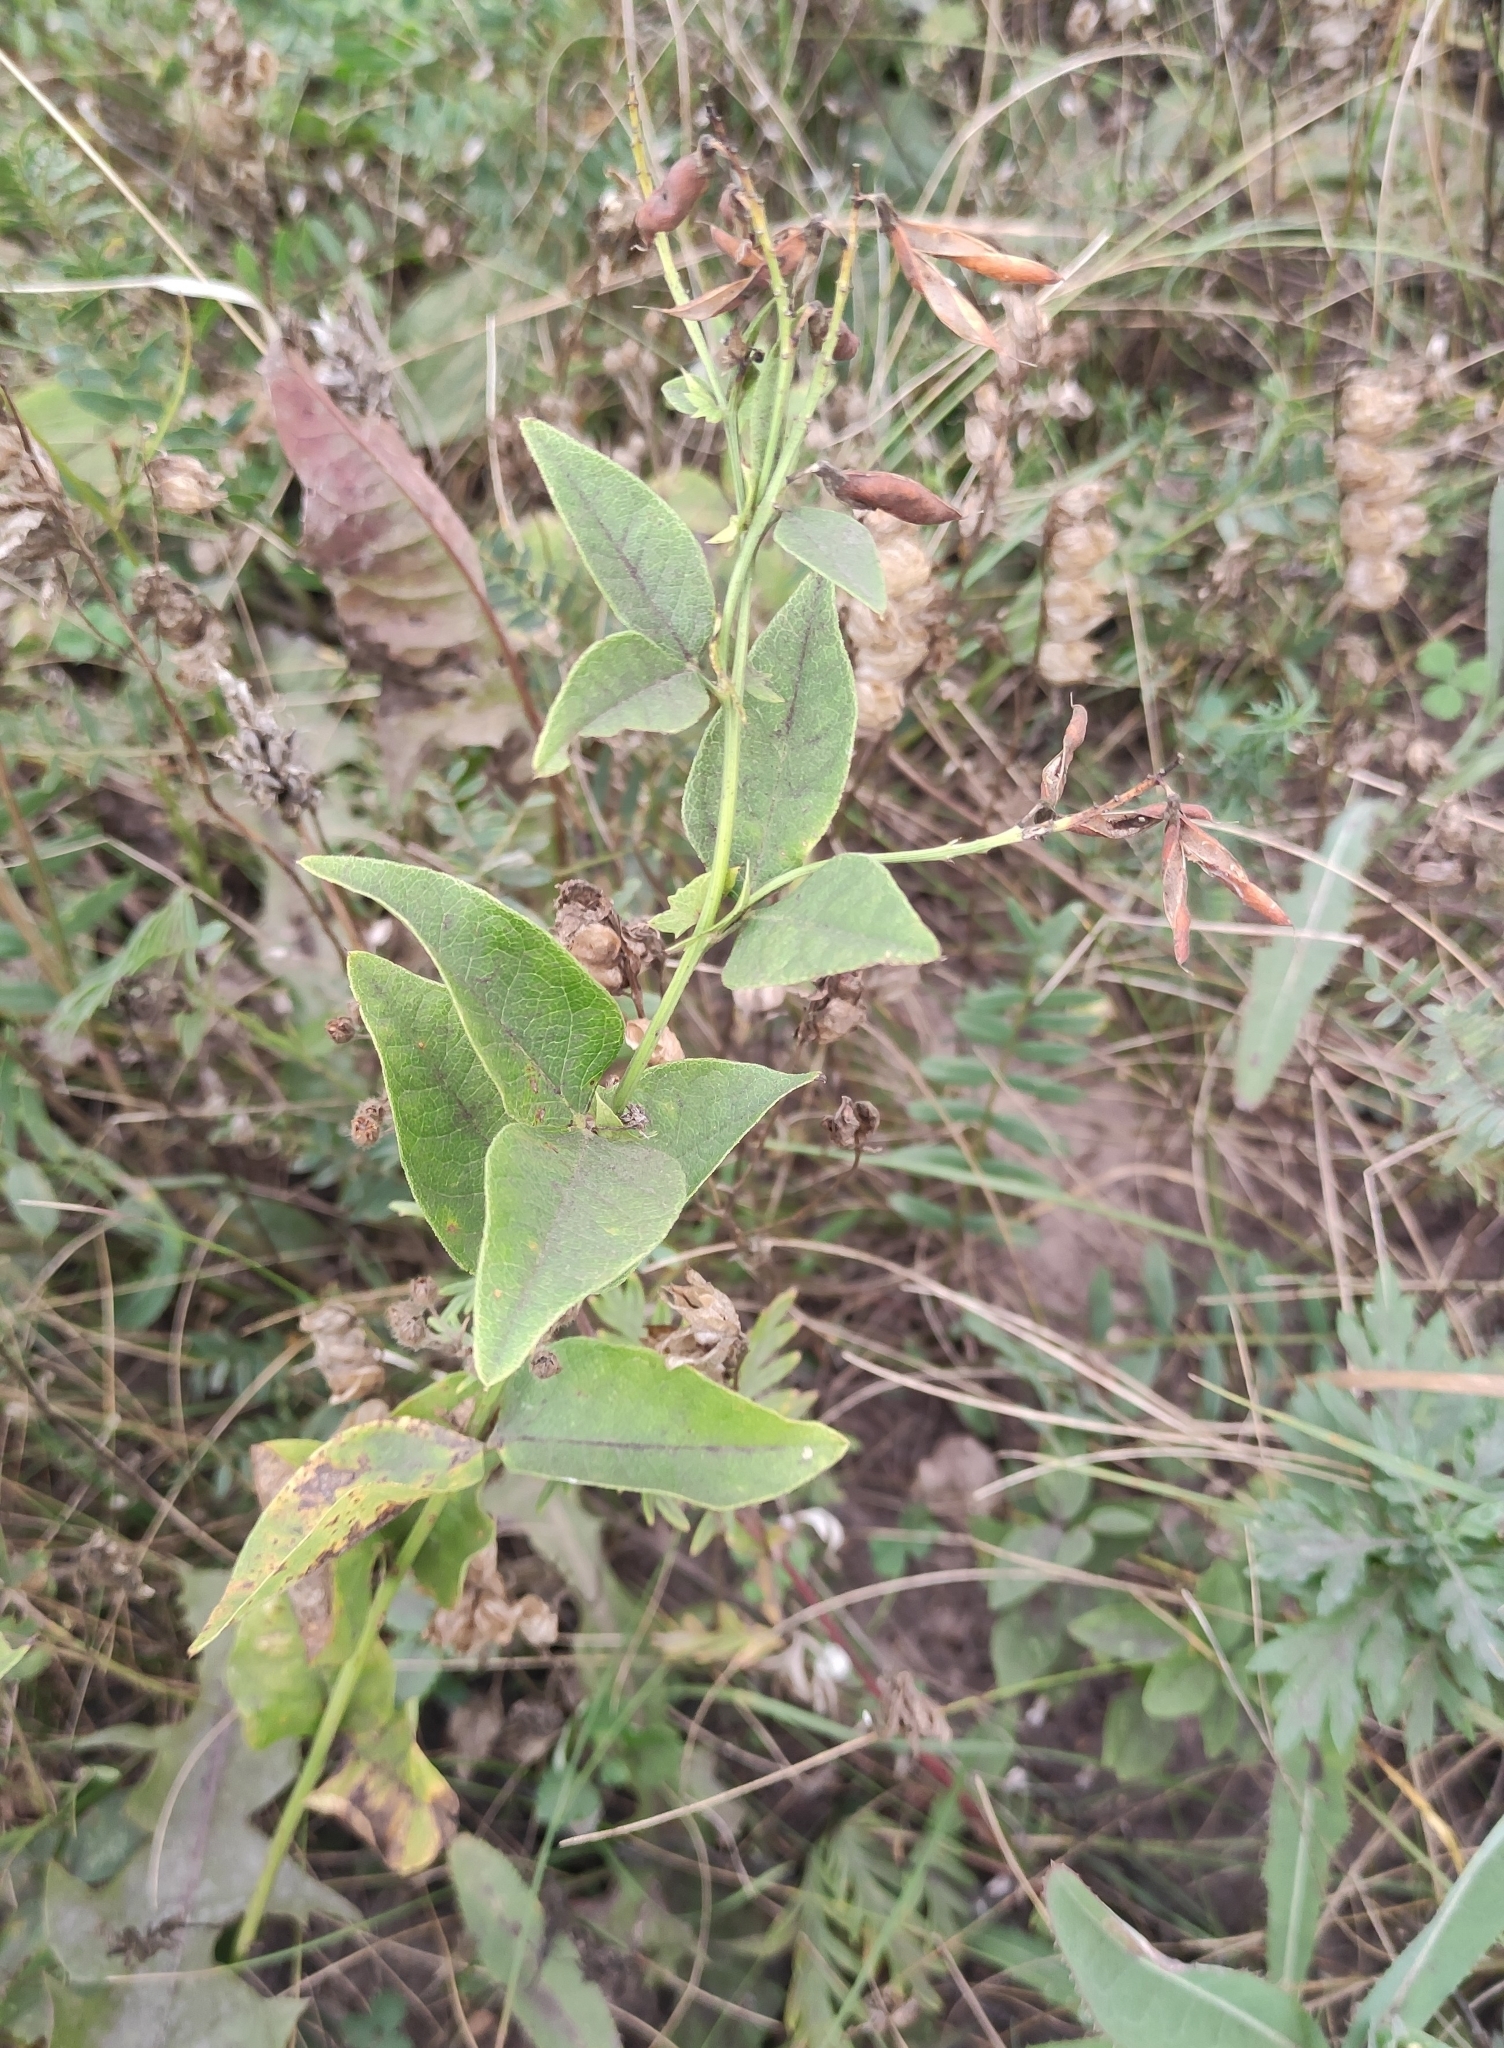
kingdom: Plantae
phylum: Tracheophyta
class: Magnoliopsida
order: Fabales
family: Fabaceae
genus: Vicia
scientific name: Vicia unijuga
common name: Two-leaf vetch
